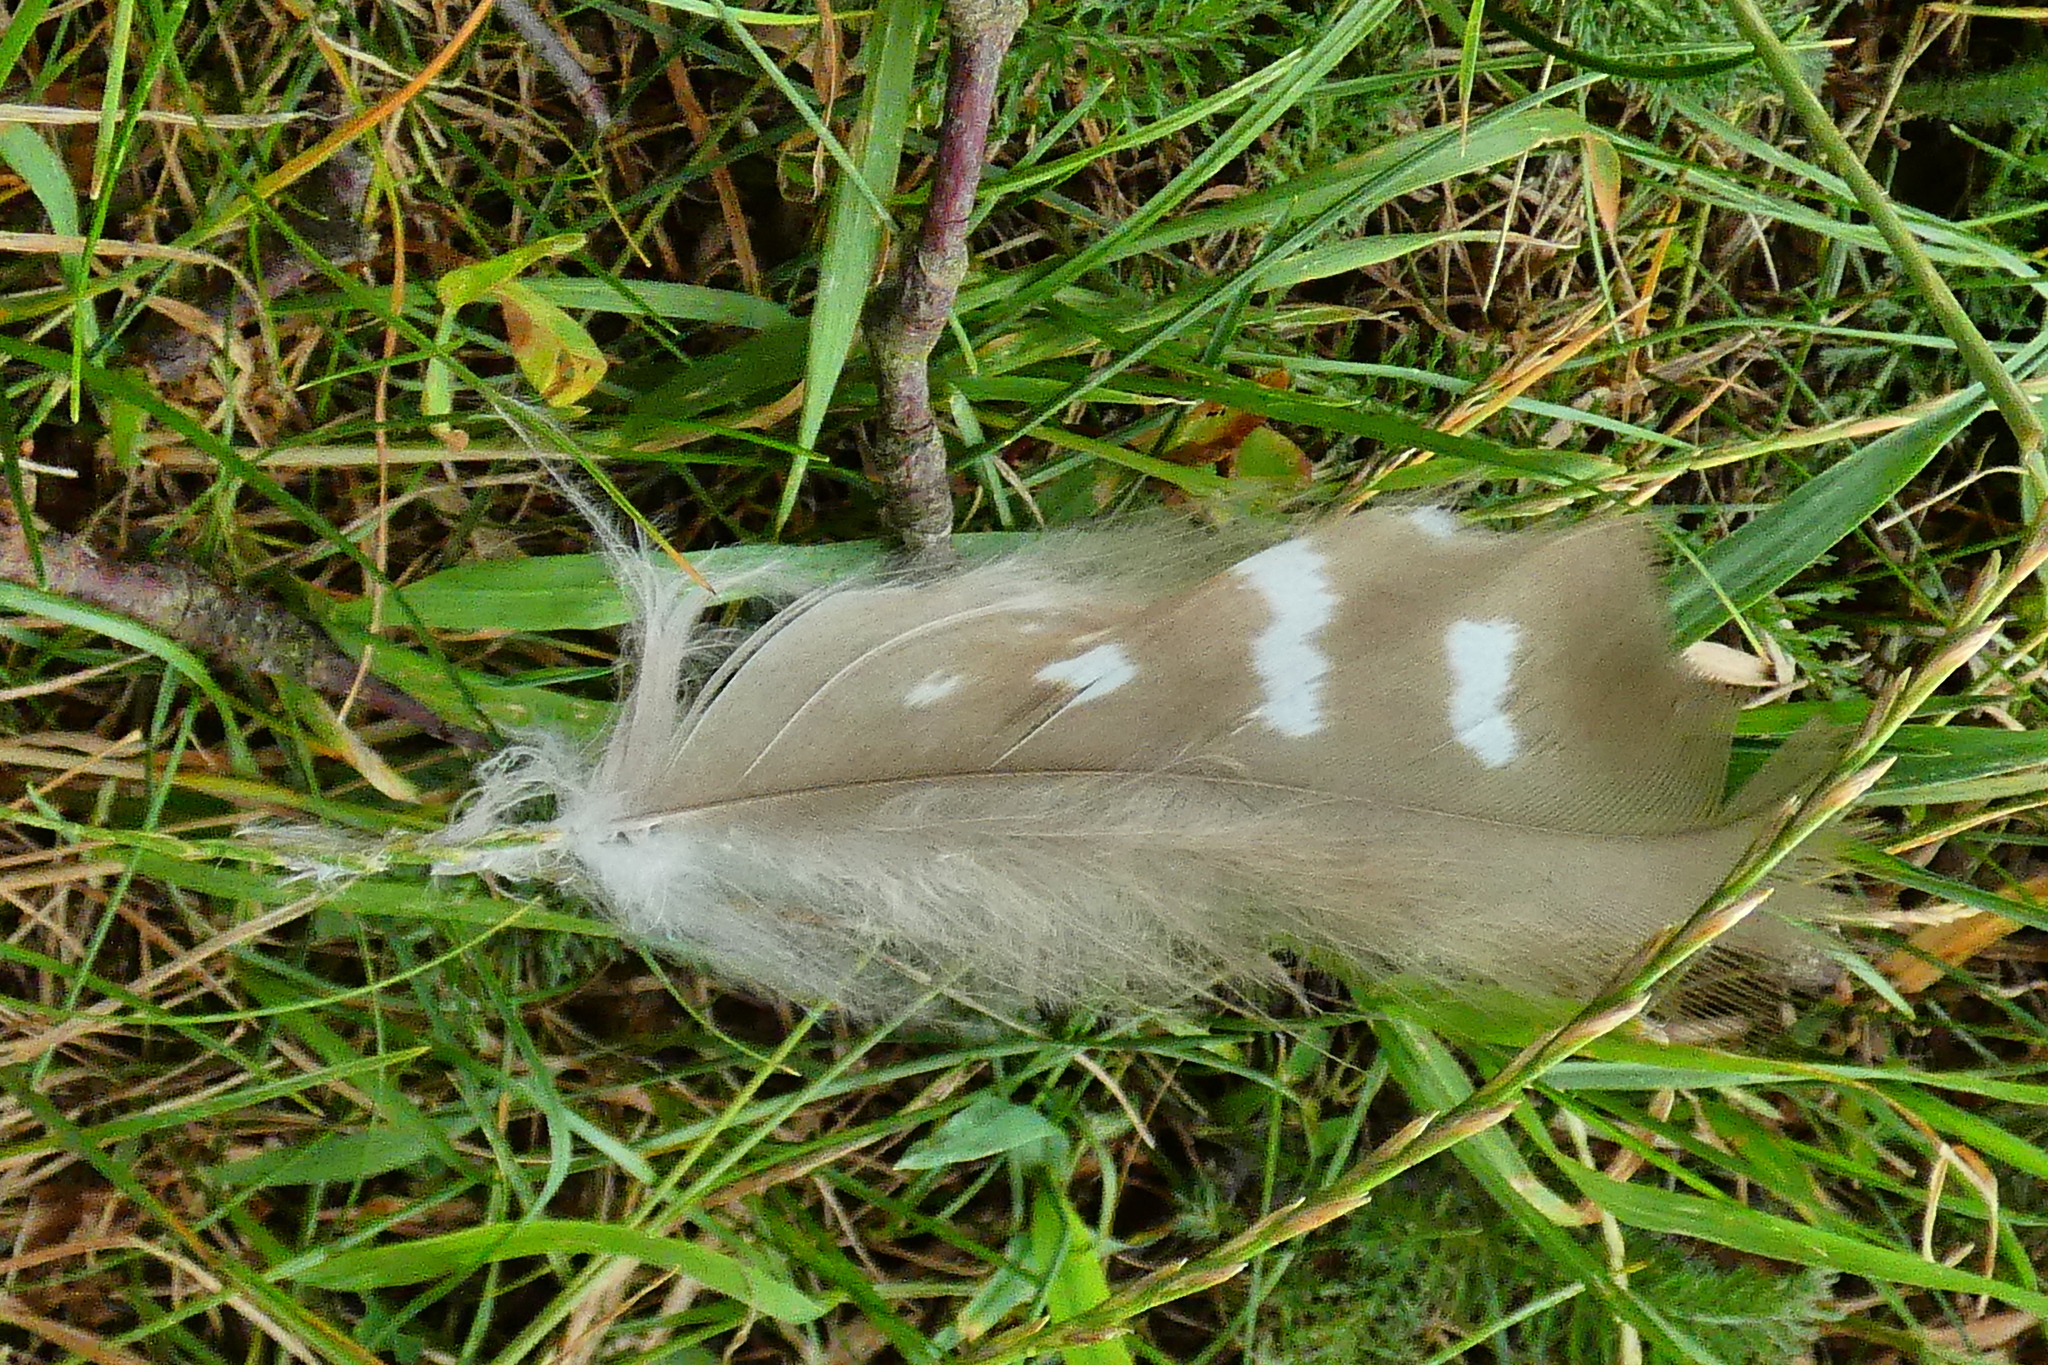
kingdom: Animalia
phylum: Chordata
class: Aves
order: Accipitriformes
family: Accipitridae
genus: Buteo
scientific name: Buteo buteo
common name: Common buzzard
